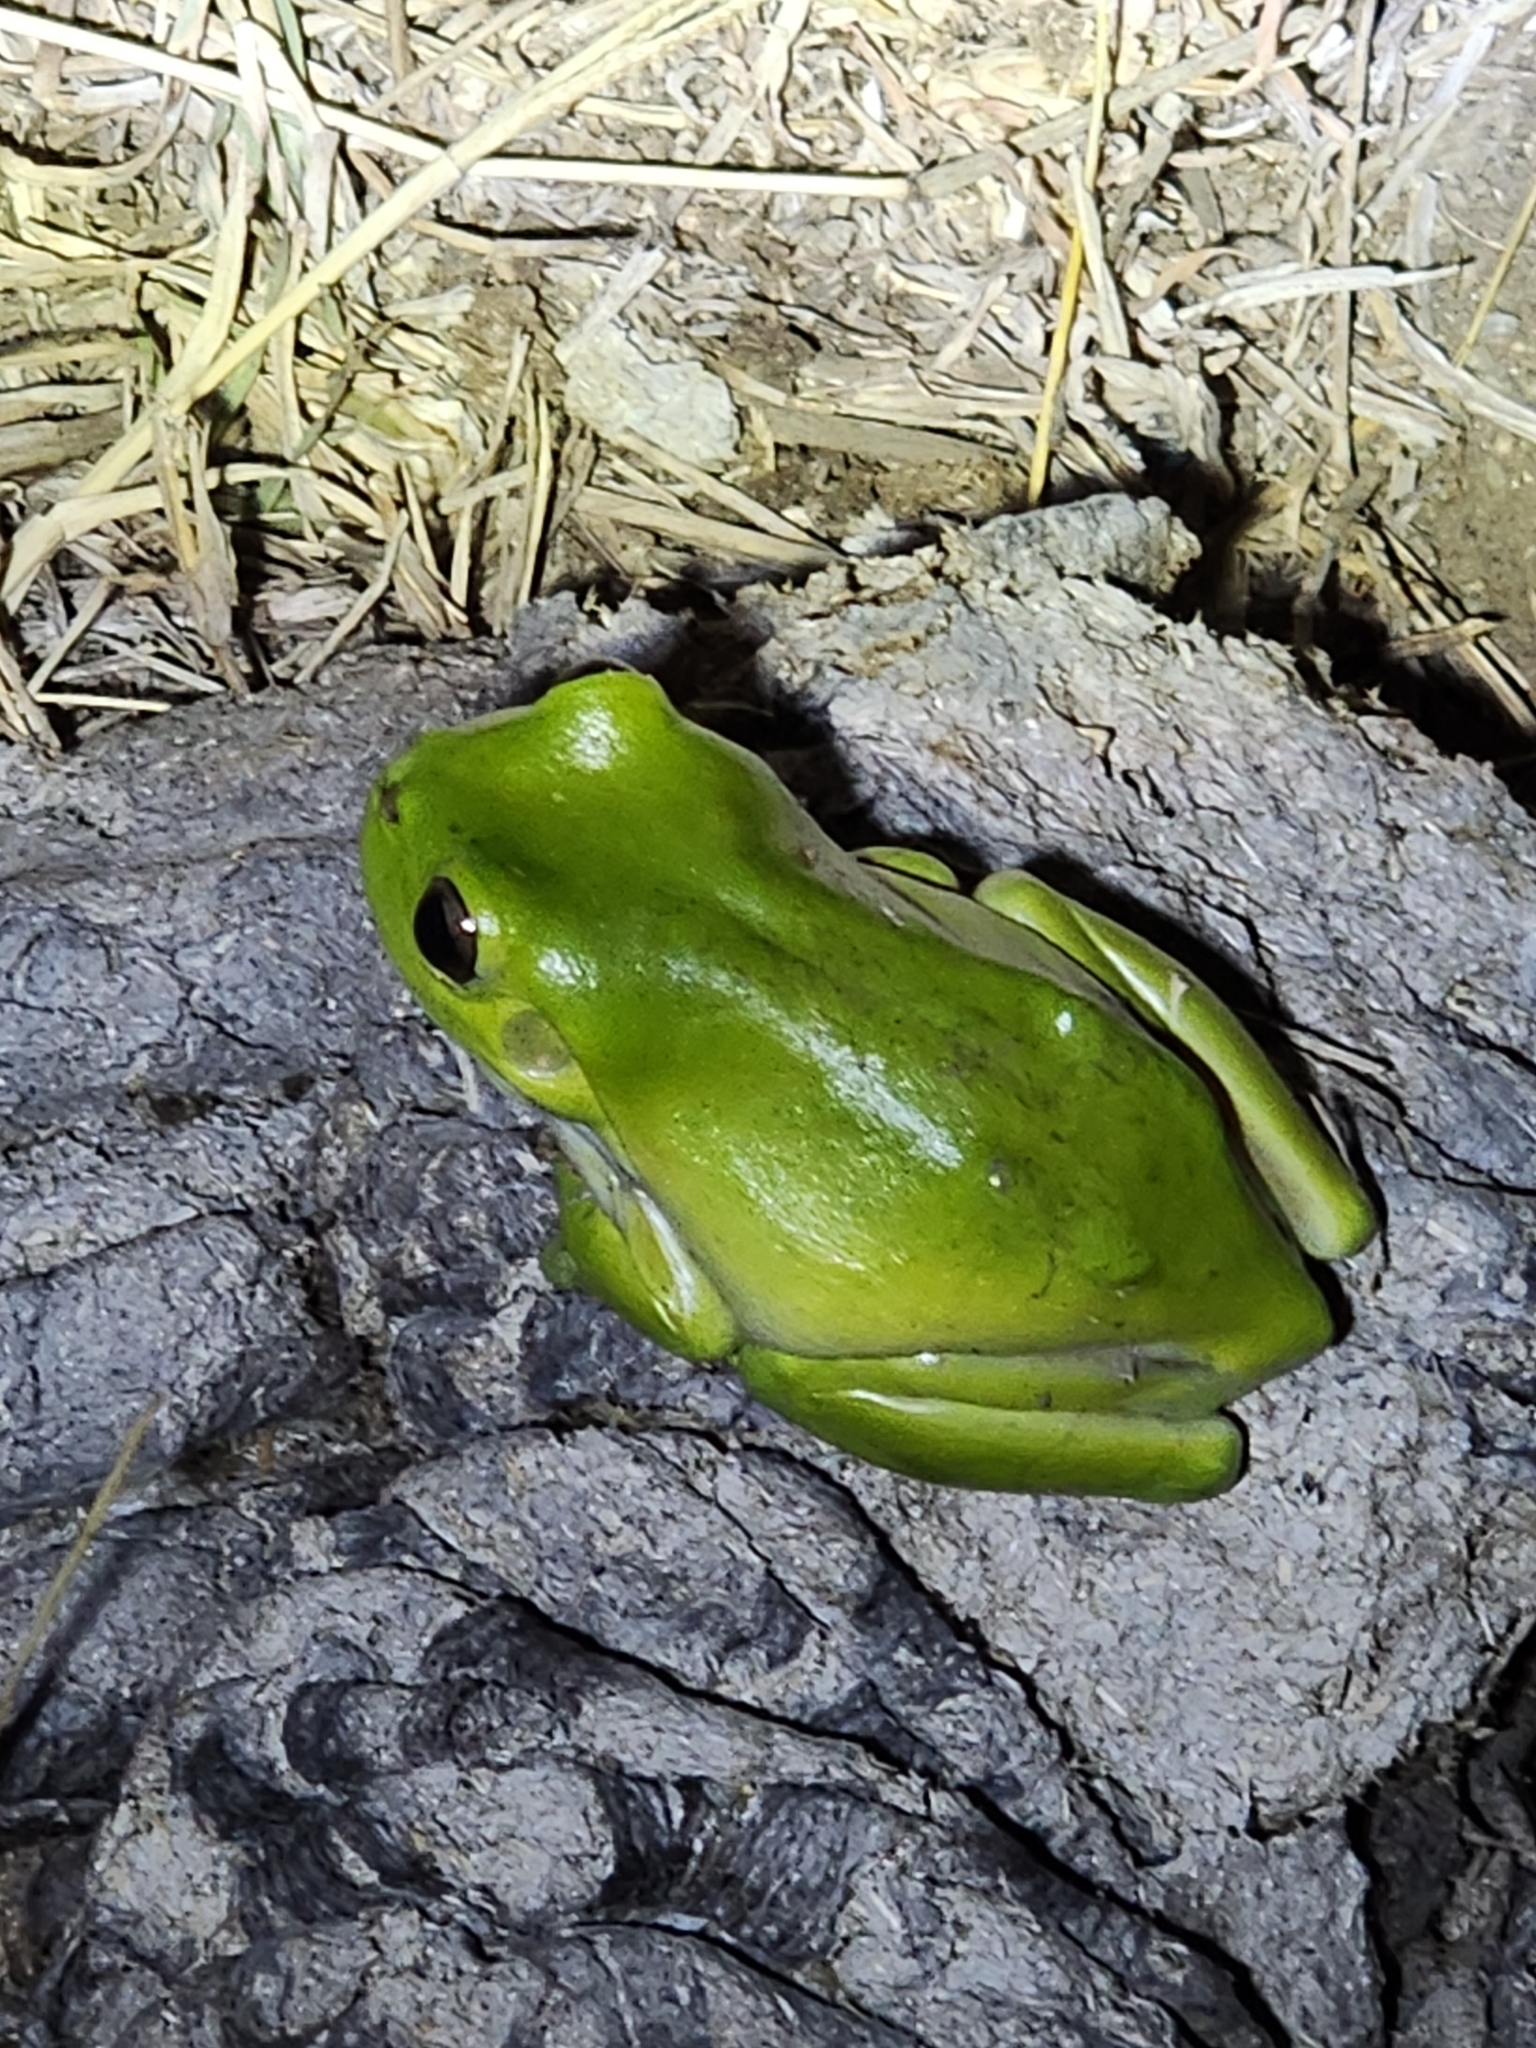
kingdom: Animalia
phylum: Chordata
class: Amphibia
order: Anura
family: Pelodryadidae
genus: Ranoidea
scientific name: Ranoidea caerulea
